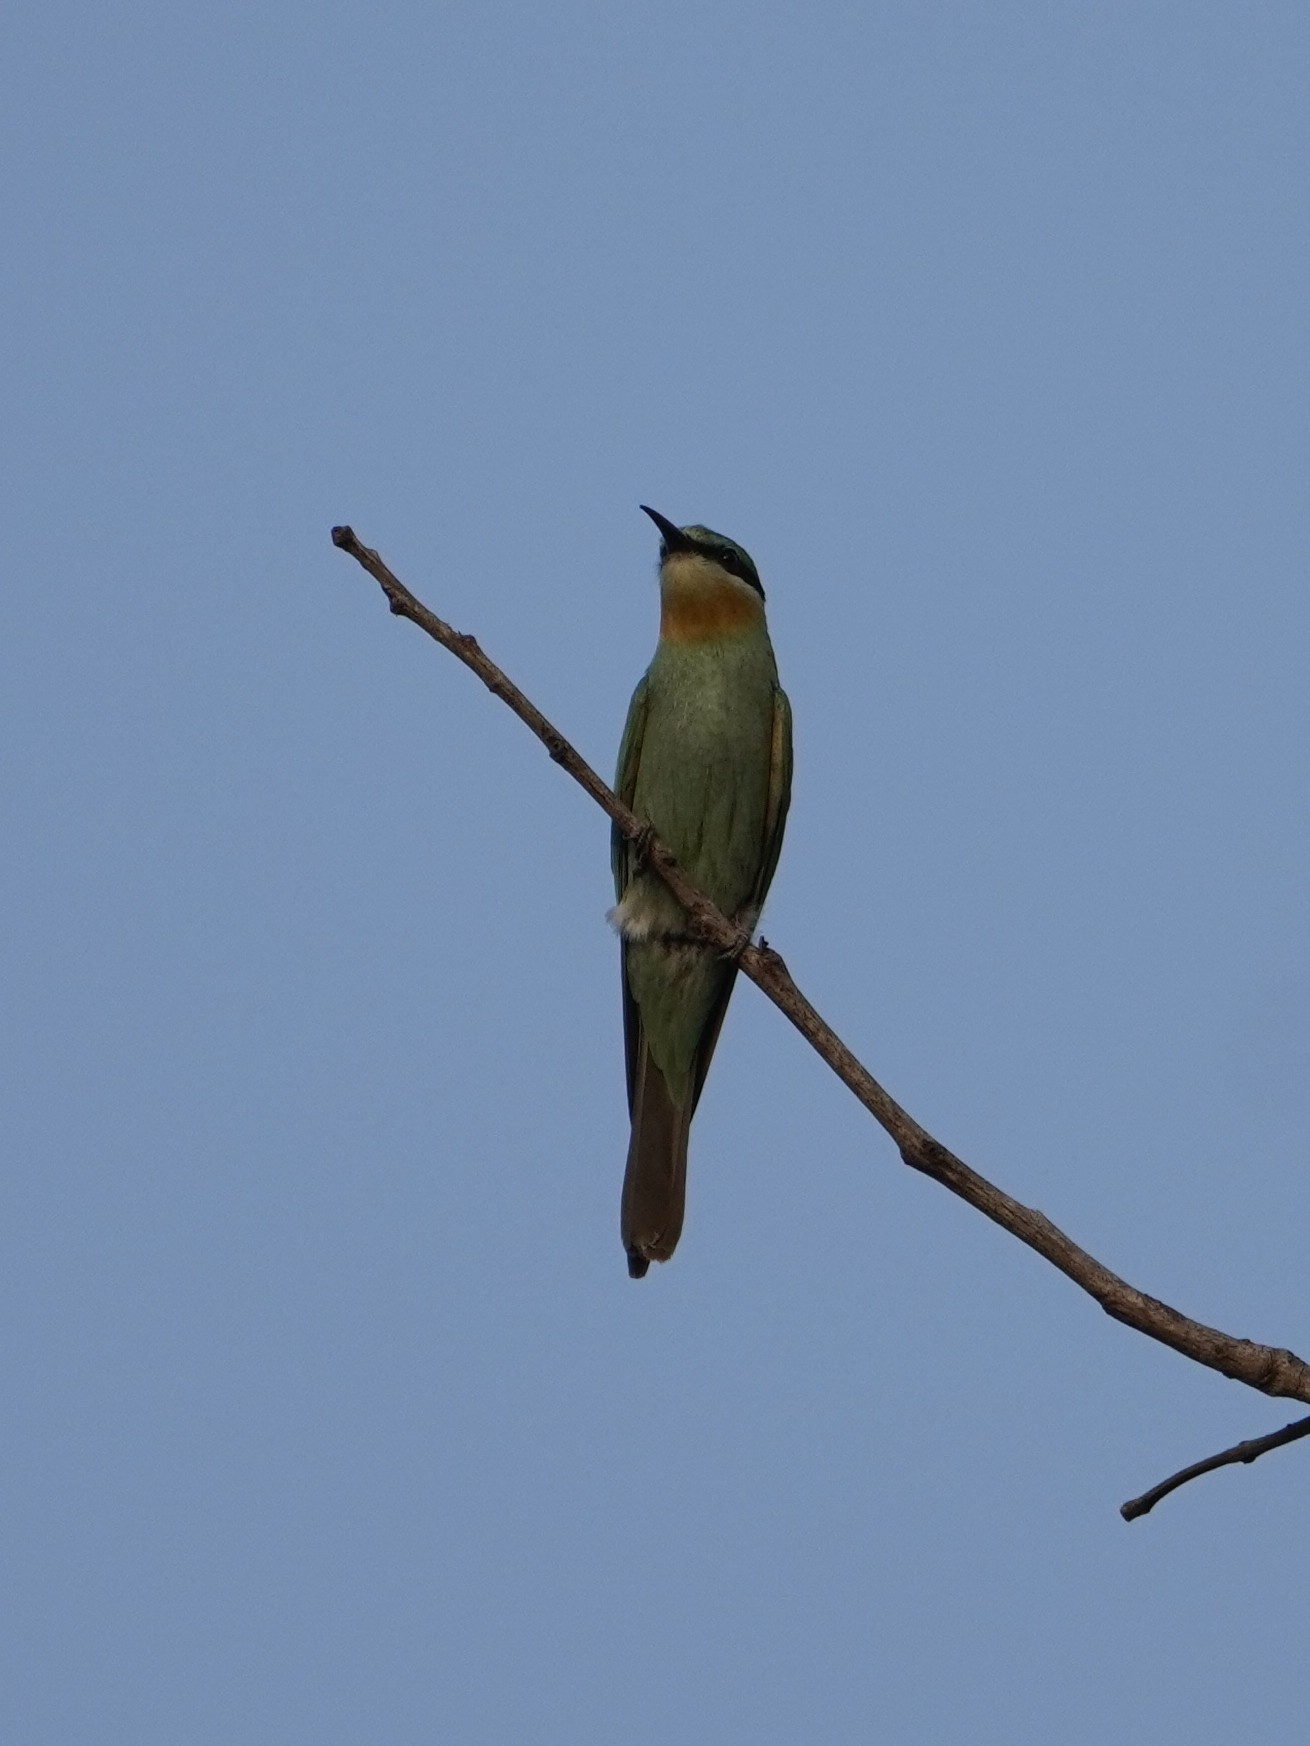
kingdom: Animalia
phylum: Chordata
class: Aves
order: Coraciiformes
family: Meropidae
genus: Merops
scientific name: Merops persicus
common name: Blue-cheeked bee-eater
